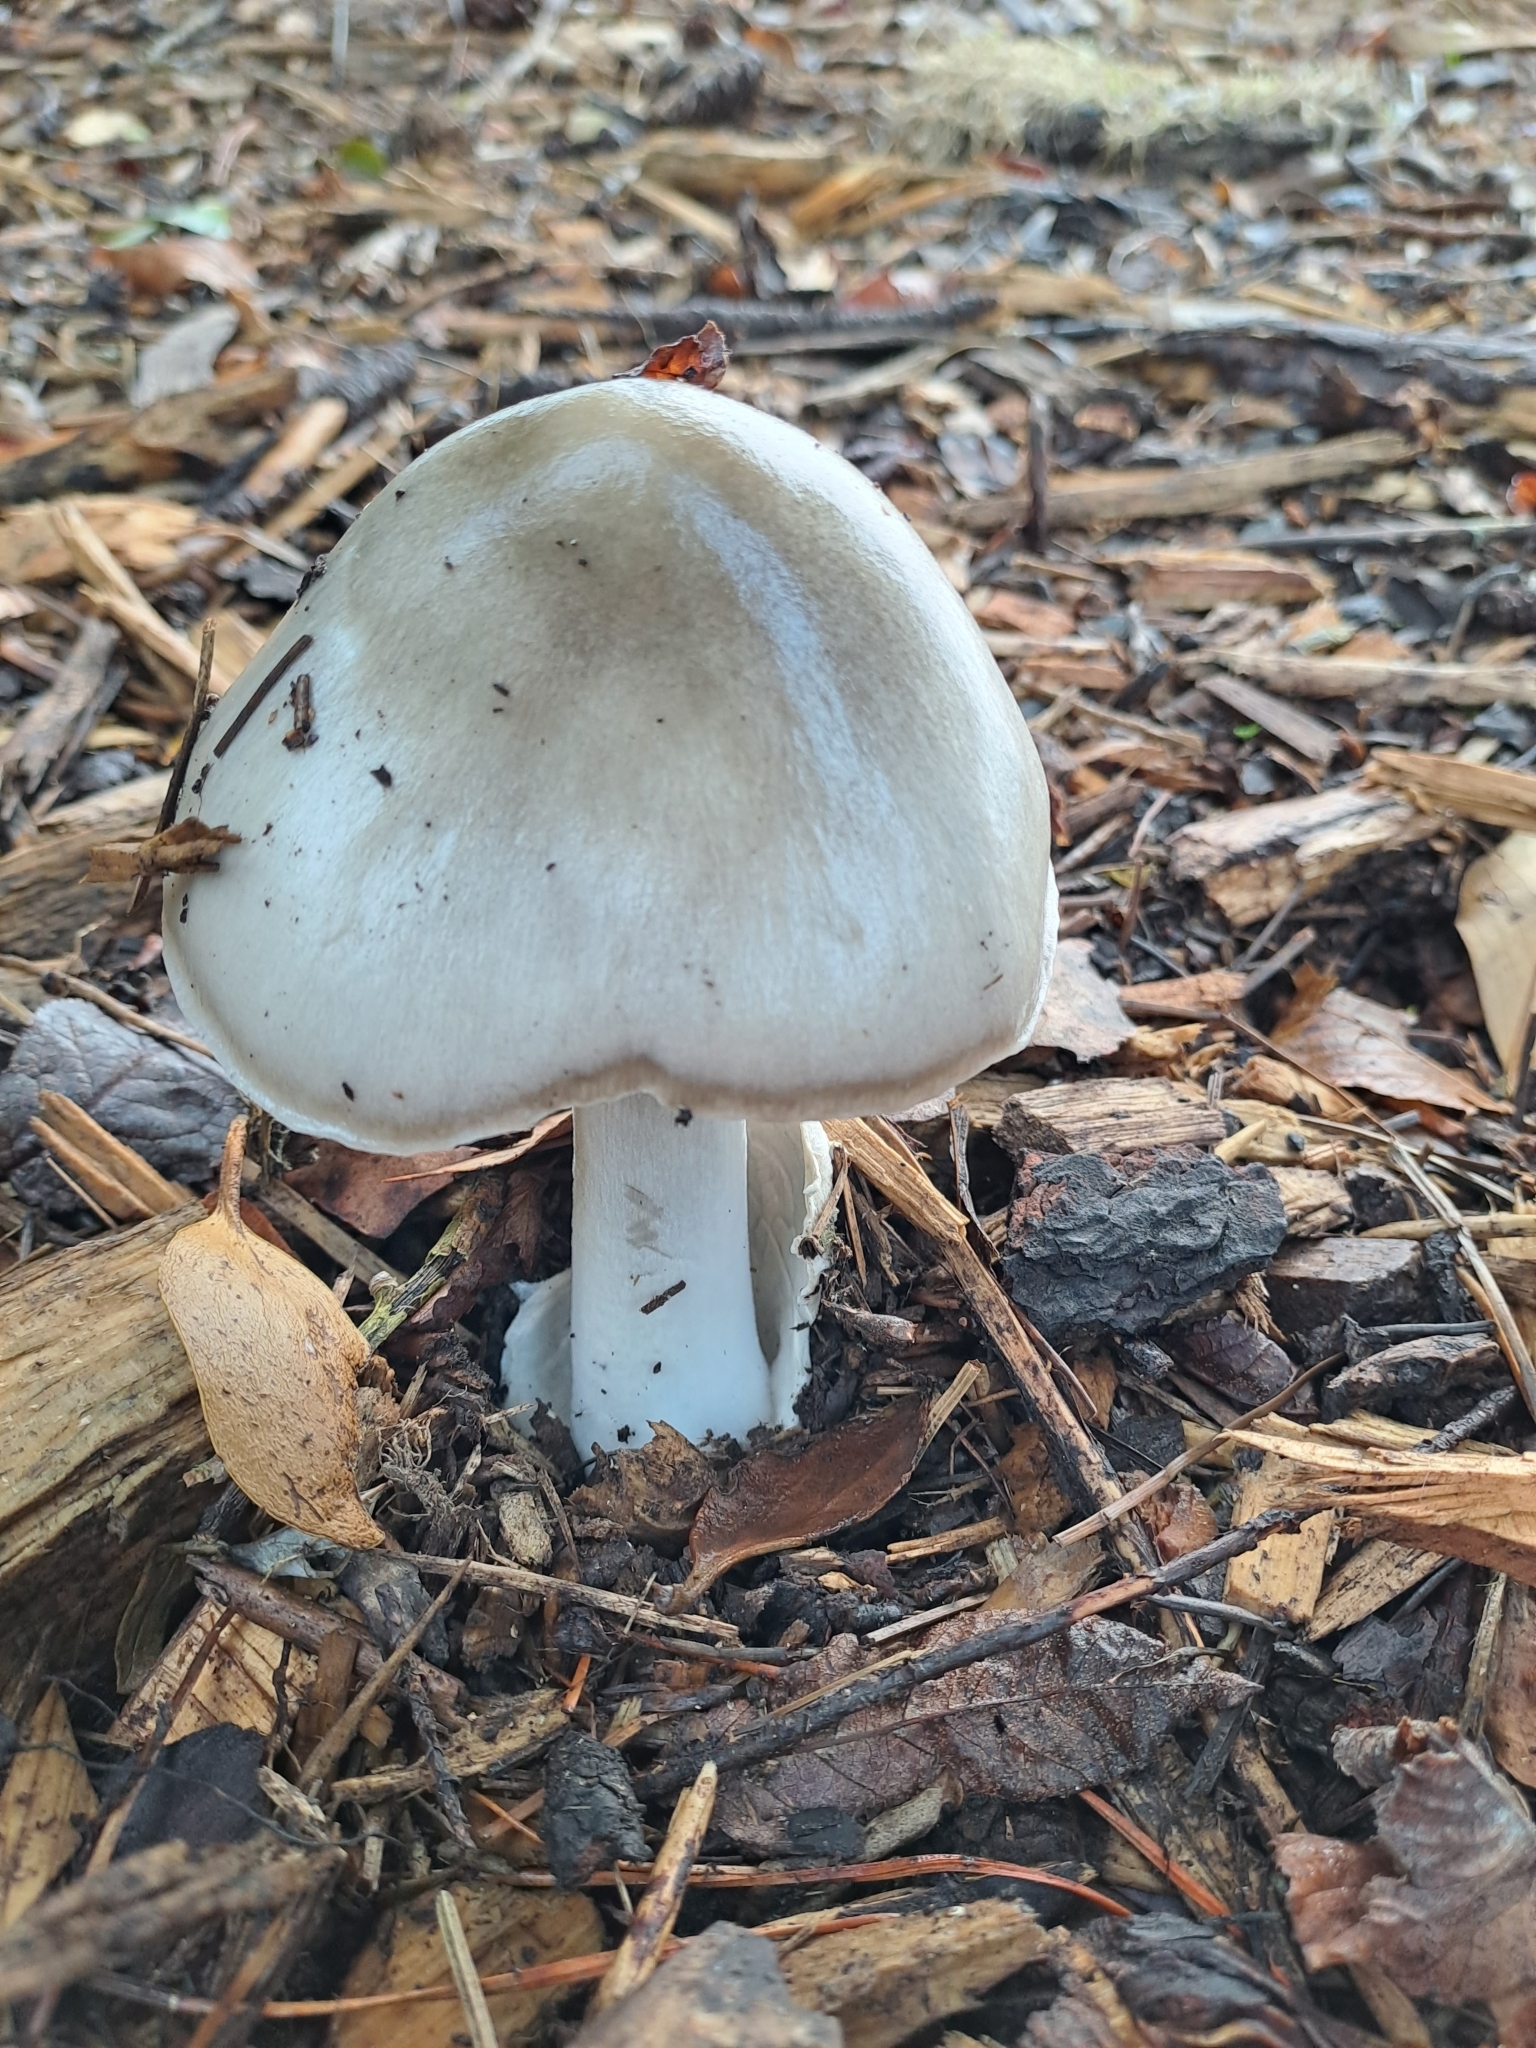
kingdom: Fungi
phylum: Basidiomycota
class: Agaricomycetes
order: Agaricales
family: Pluteaceae
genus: Volvopluteus
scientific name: Volvopluteus gloiocephalus
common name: Stubble rosegill
